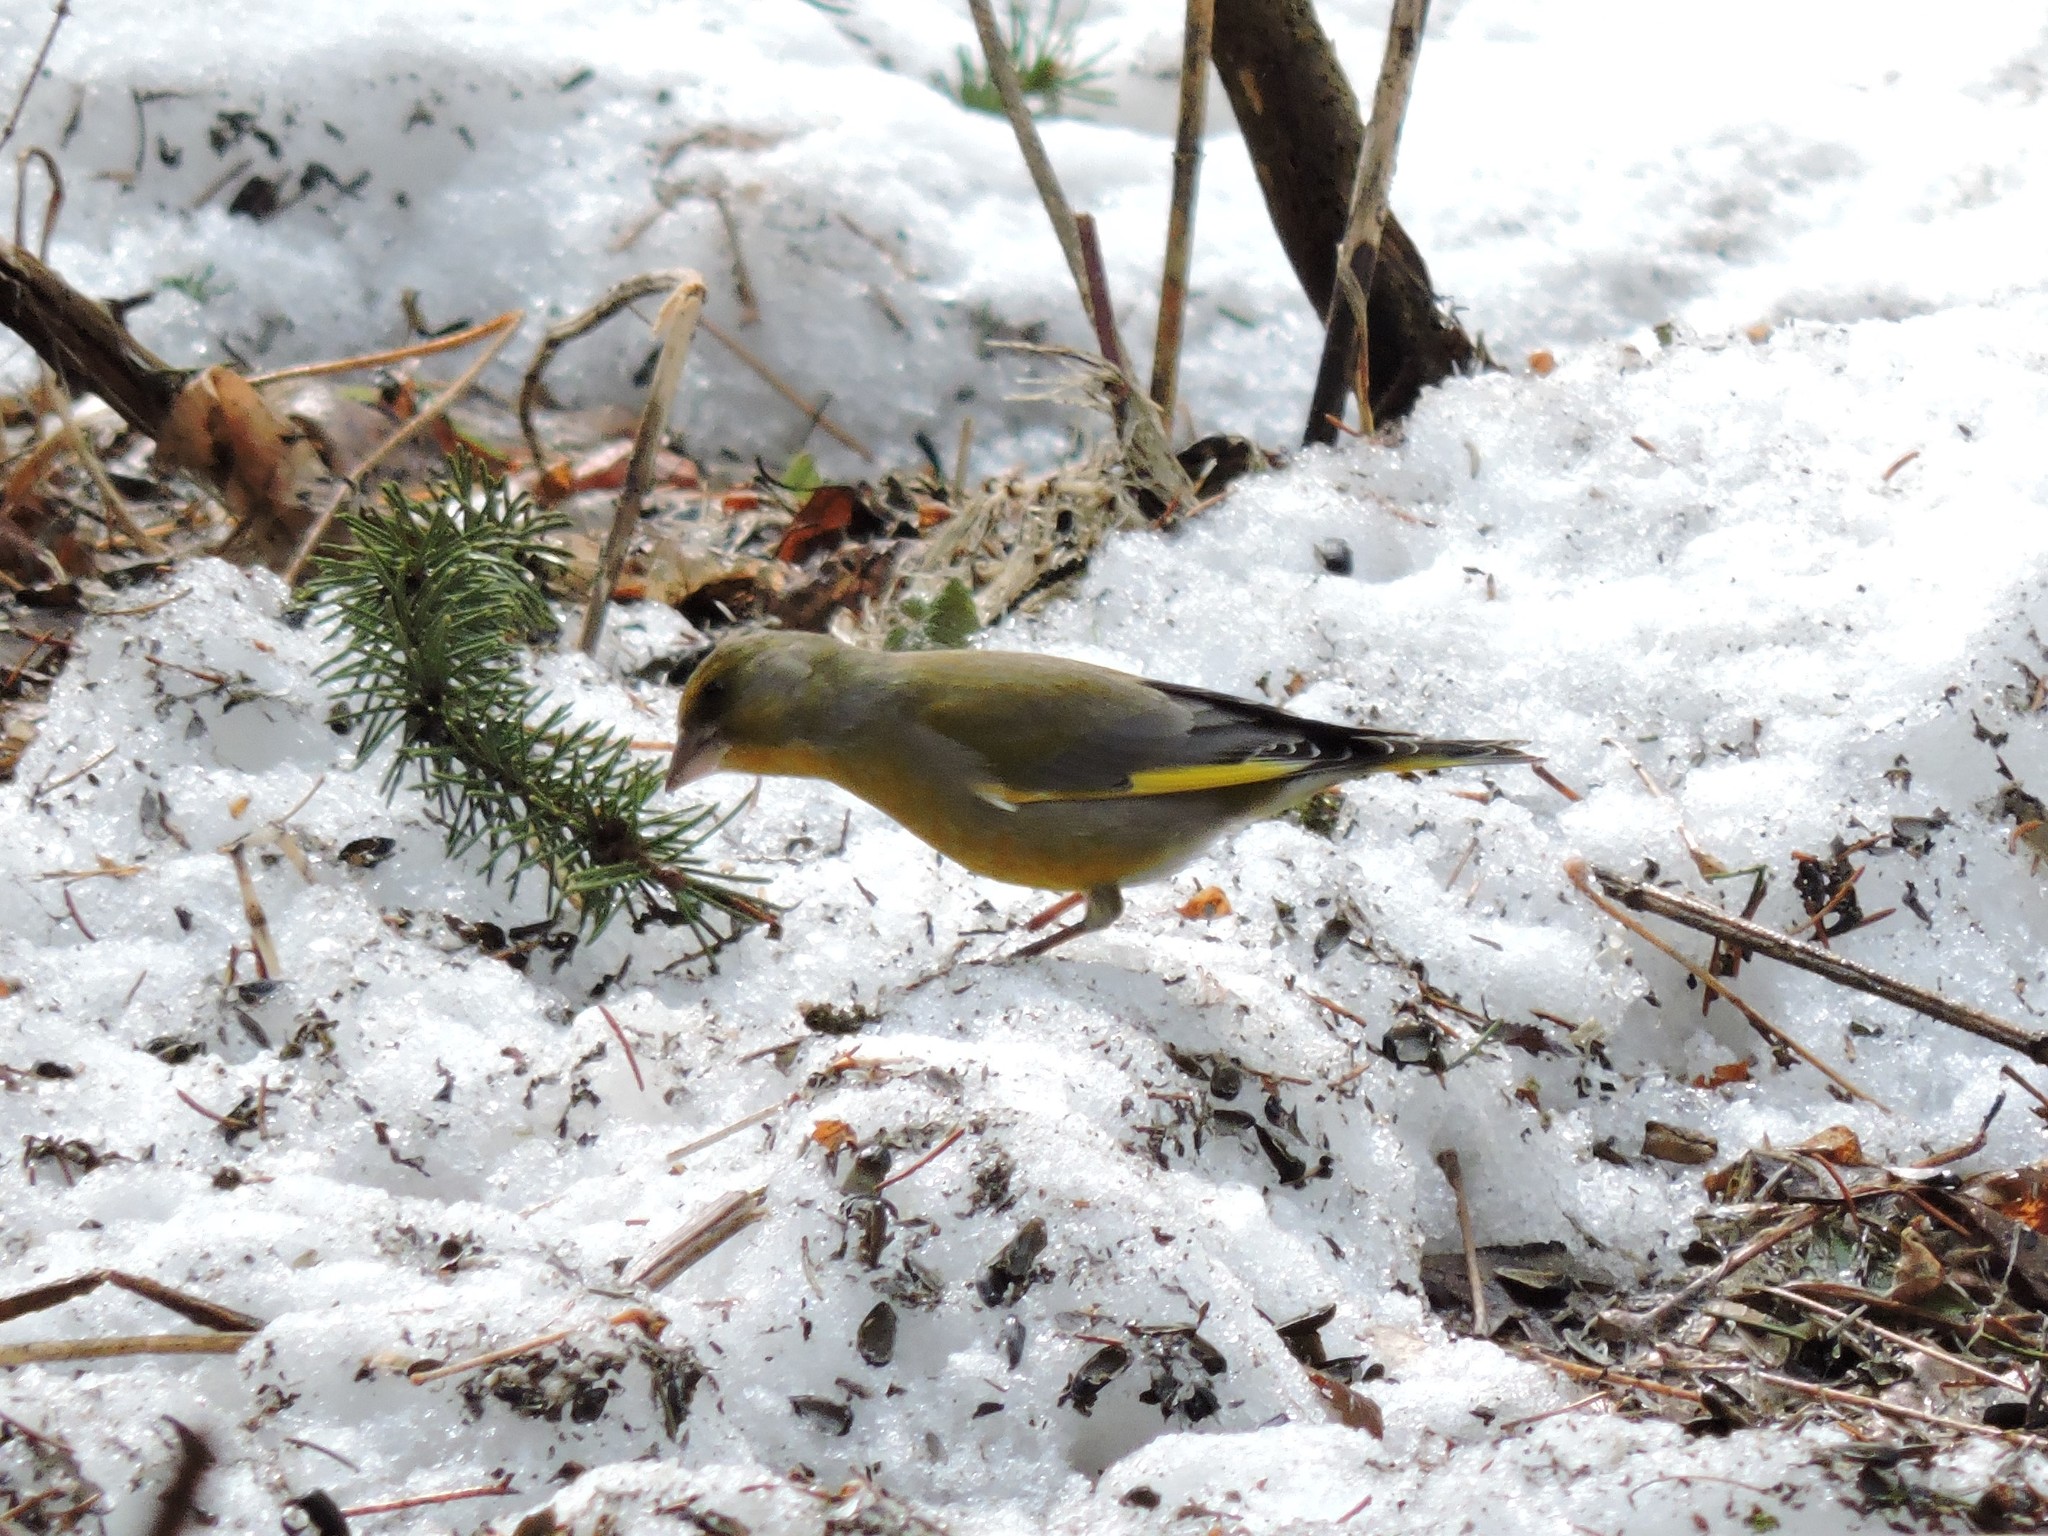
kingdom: Plantae
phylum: Tracheophyta
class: Liliopsida
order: Poales
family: Poaceae
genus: Chloris
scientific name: Chloris chloris
